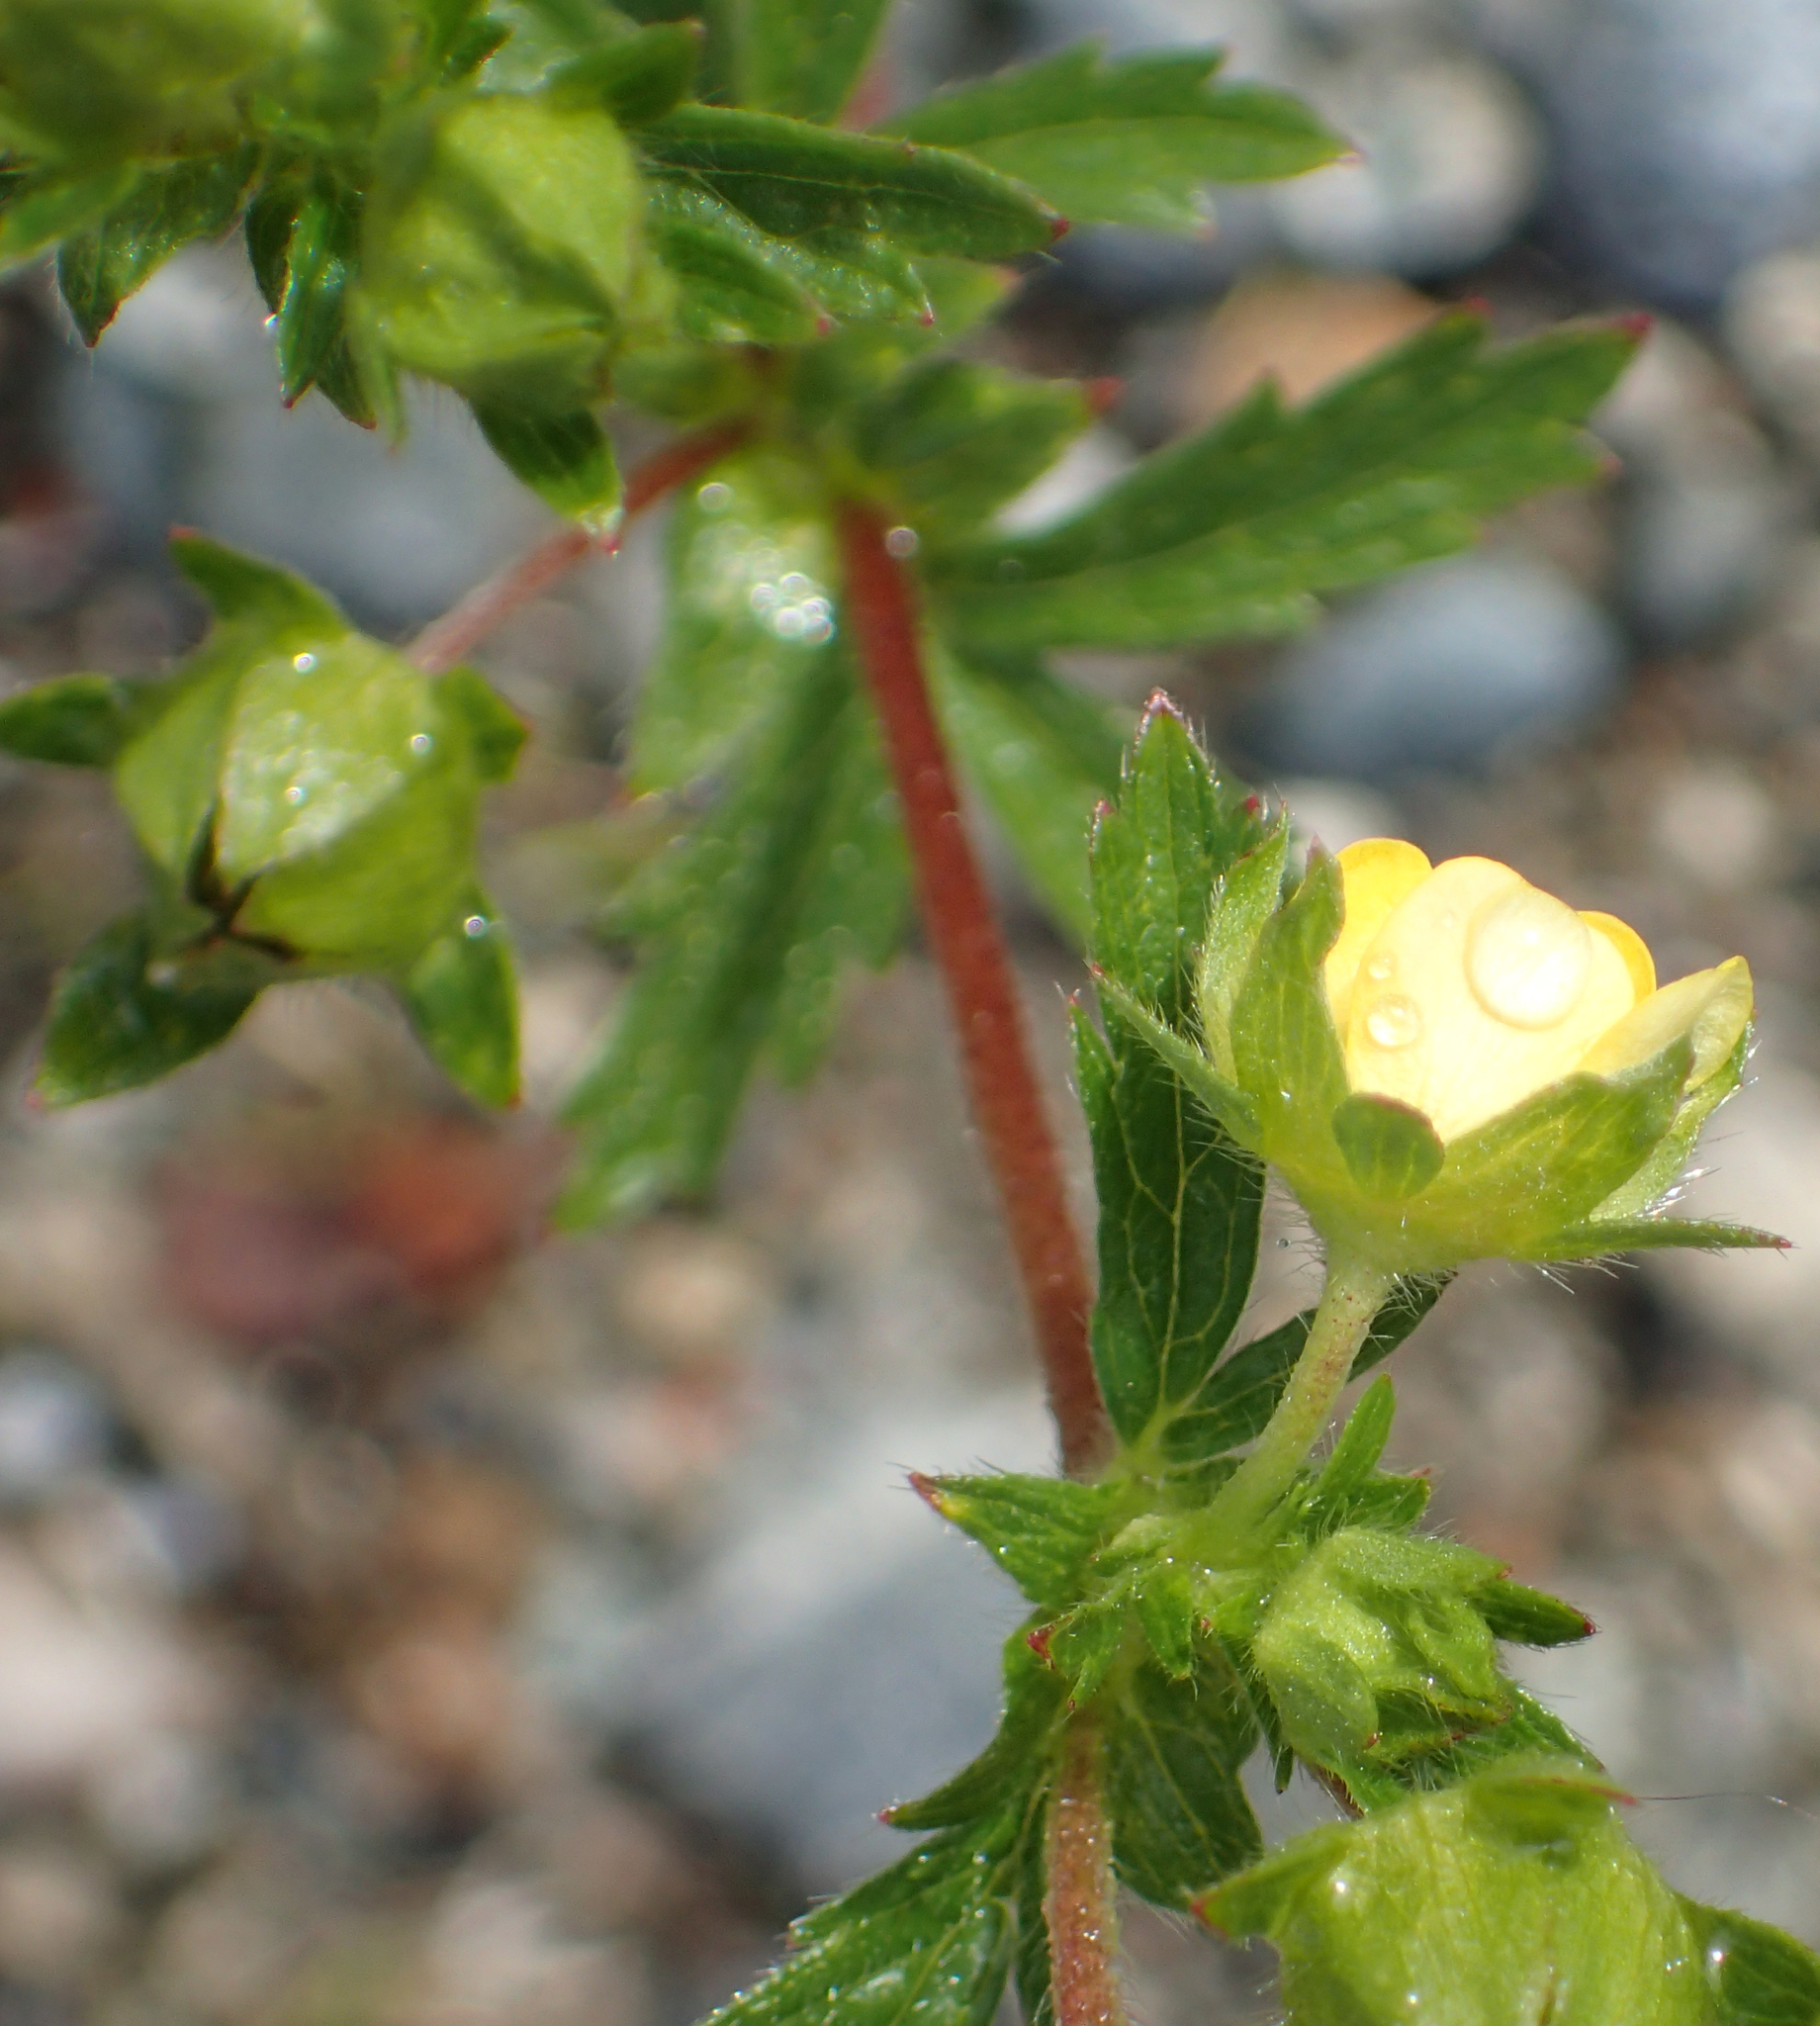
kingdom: Plantae
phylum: Tracheophyta
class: Magnoliopsida
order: Rosales
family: Rosaceae
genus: Potentilla
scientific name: Potentilla norvegica
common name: Ternate-leaved cinquefoil
